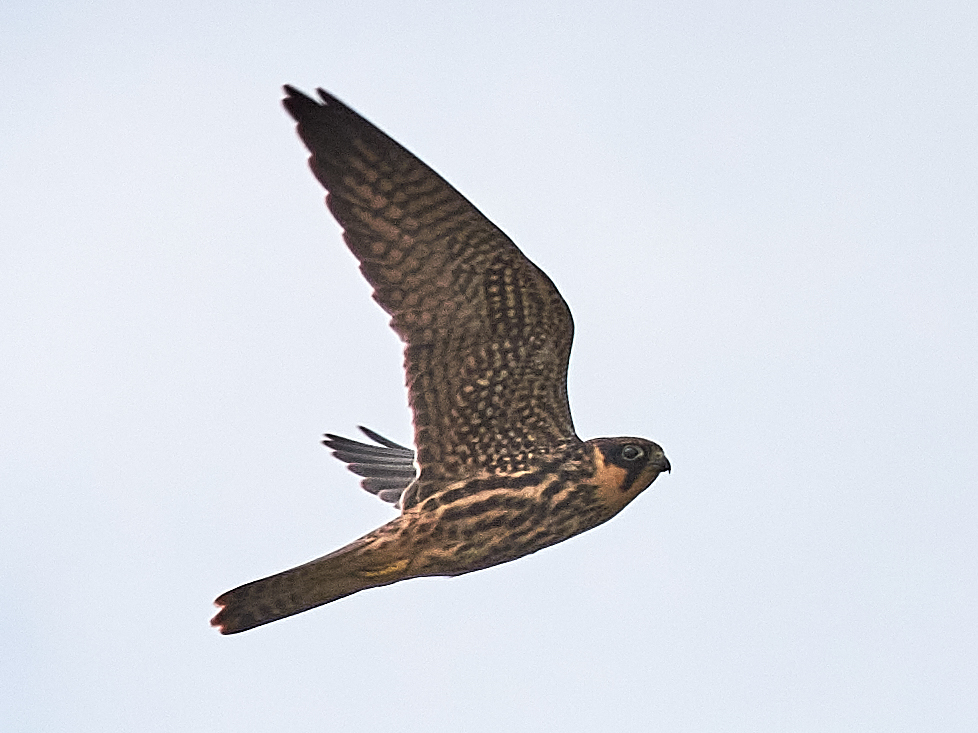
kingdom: Animalia
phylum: Chordata
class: Aves
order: Falconiformes
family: Falconidae
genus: Falco
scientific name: Falco subbuteo
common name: Eurasian hobby
